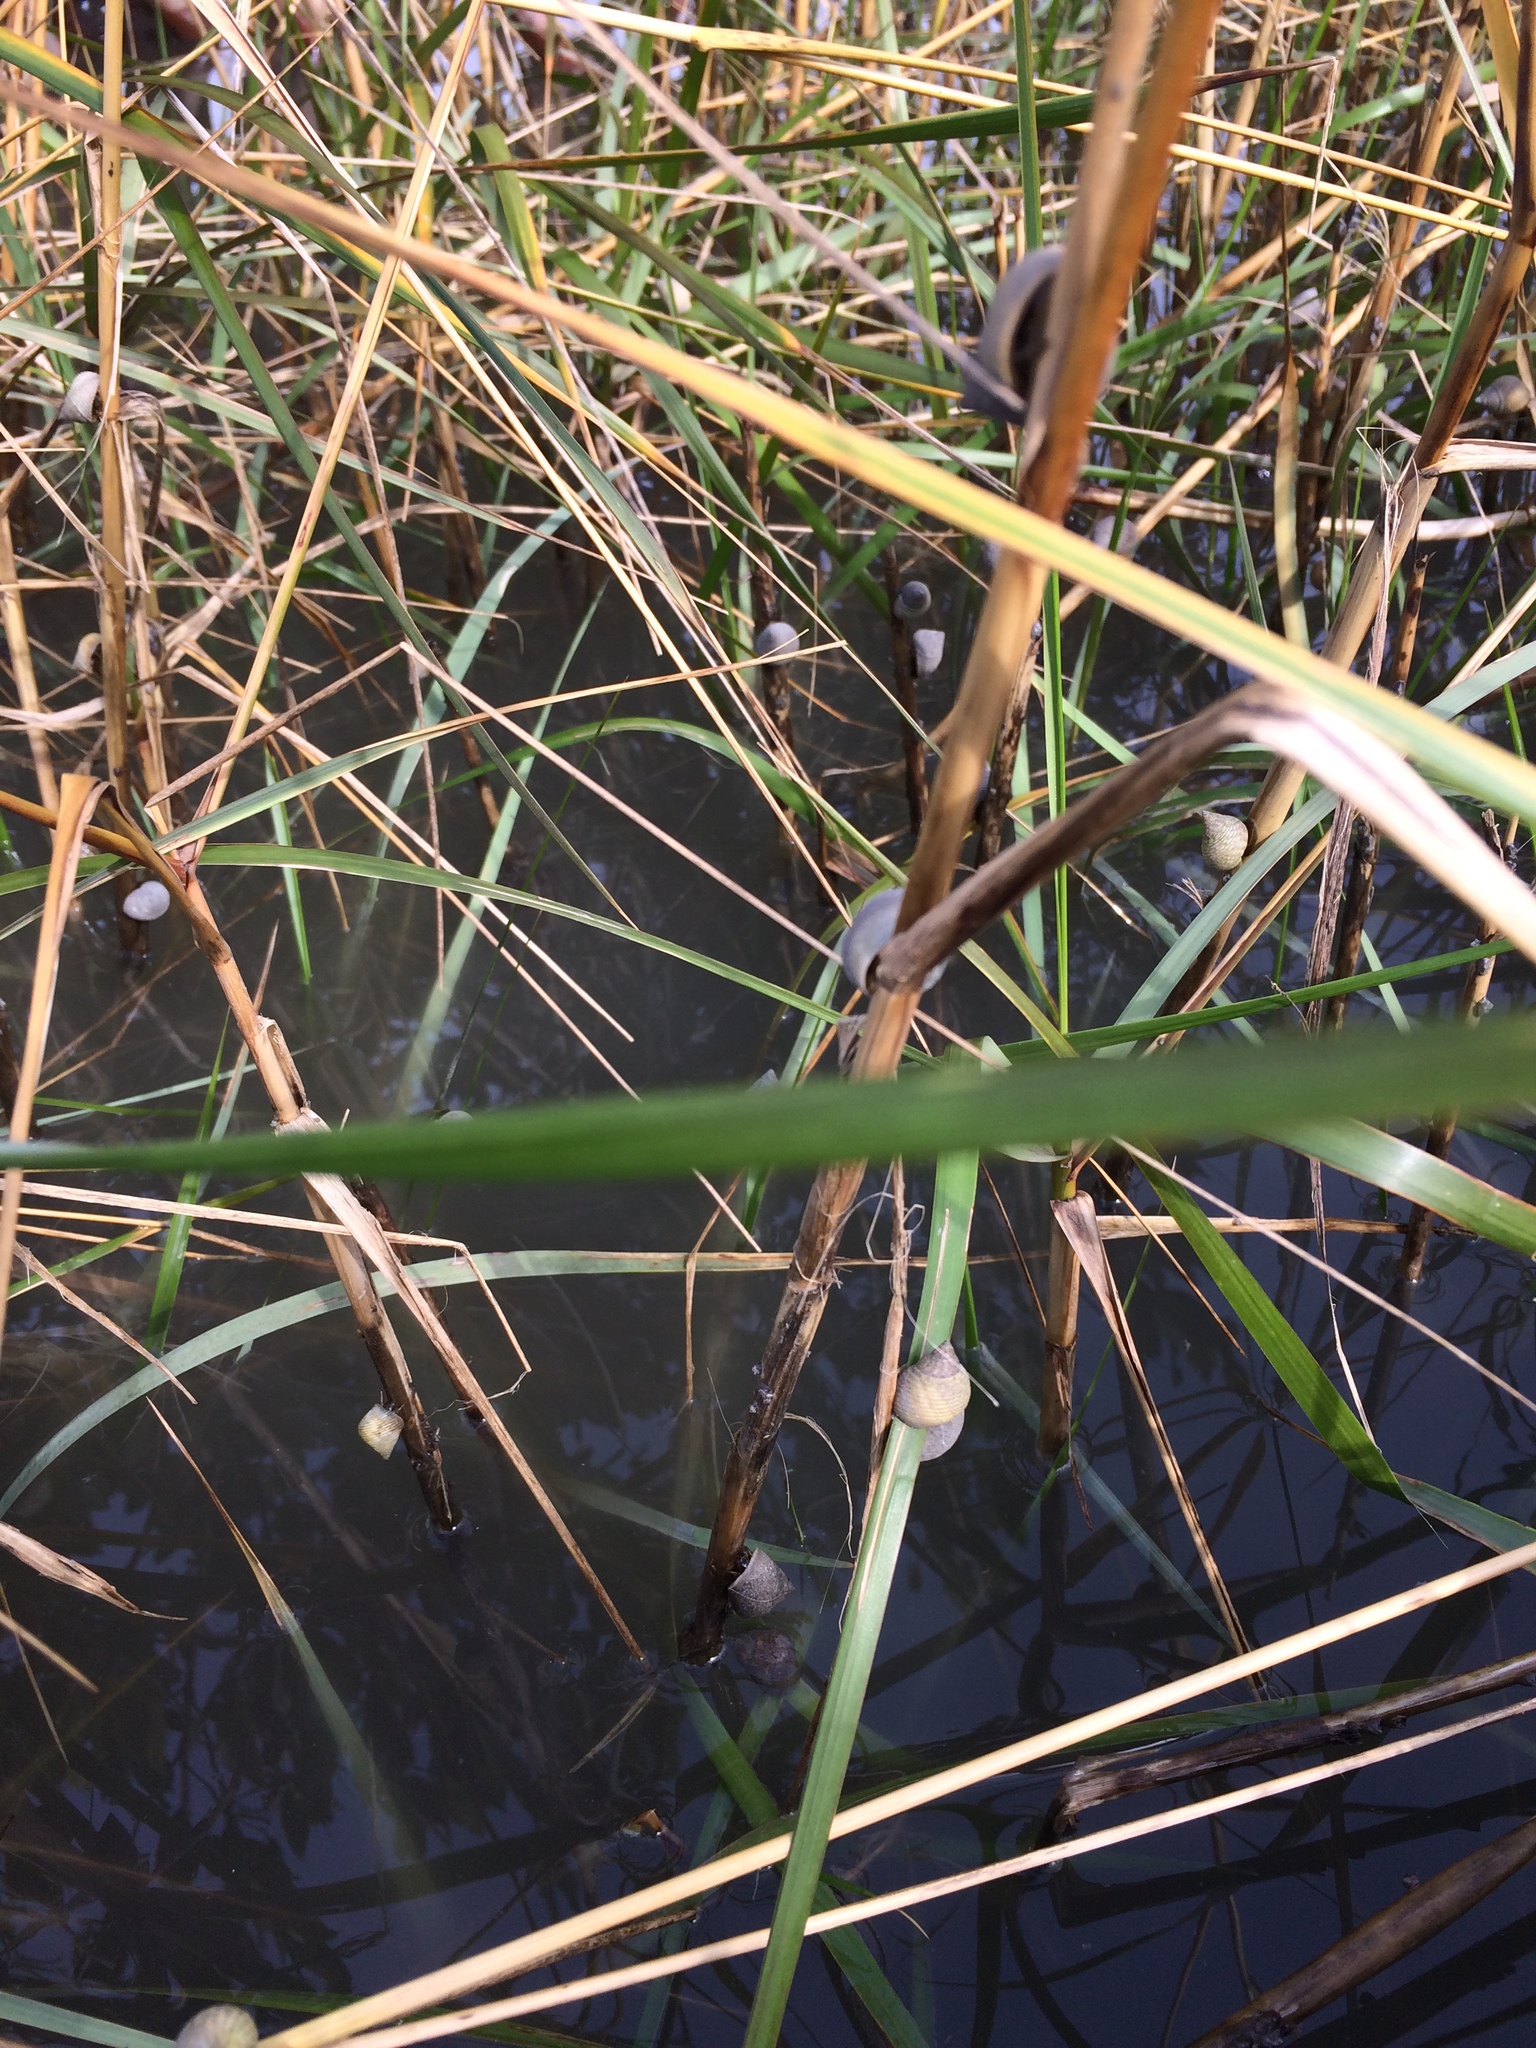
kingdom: Animalia
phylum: Mollusca
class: Gastropoda
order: Littorinimorpha
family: Littorinidae
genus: Littoraria
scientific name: Littoraria irrorata
